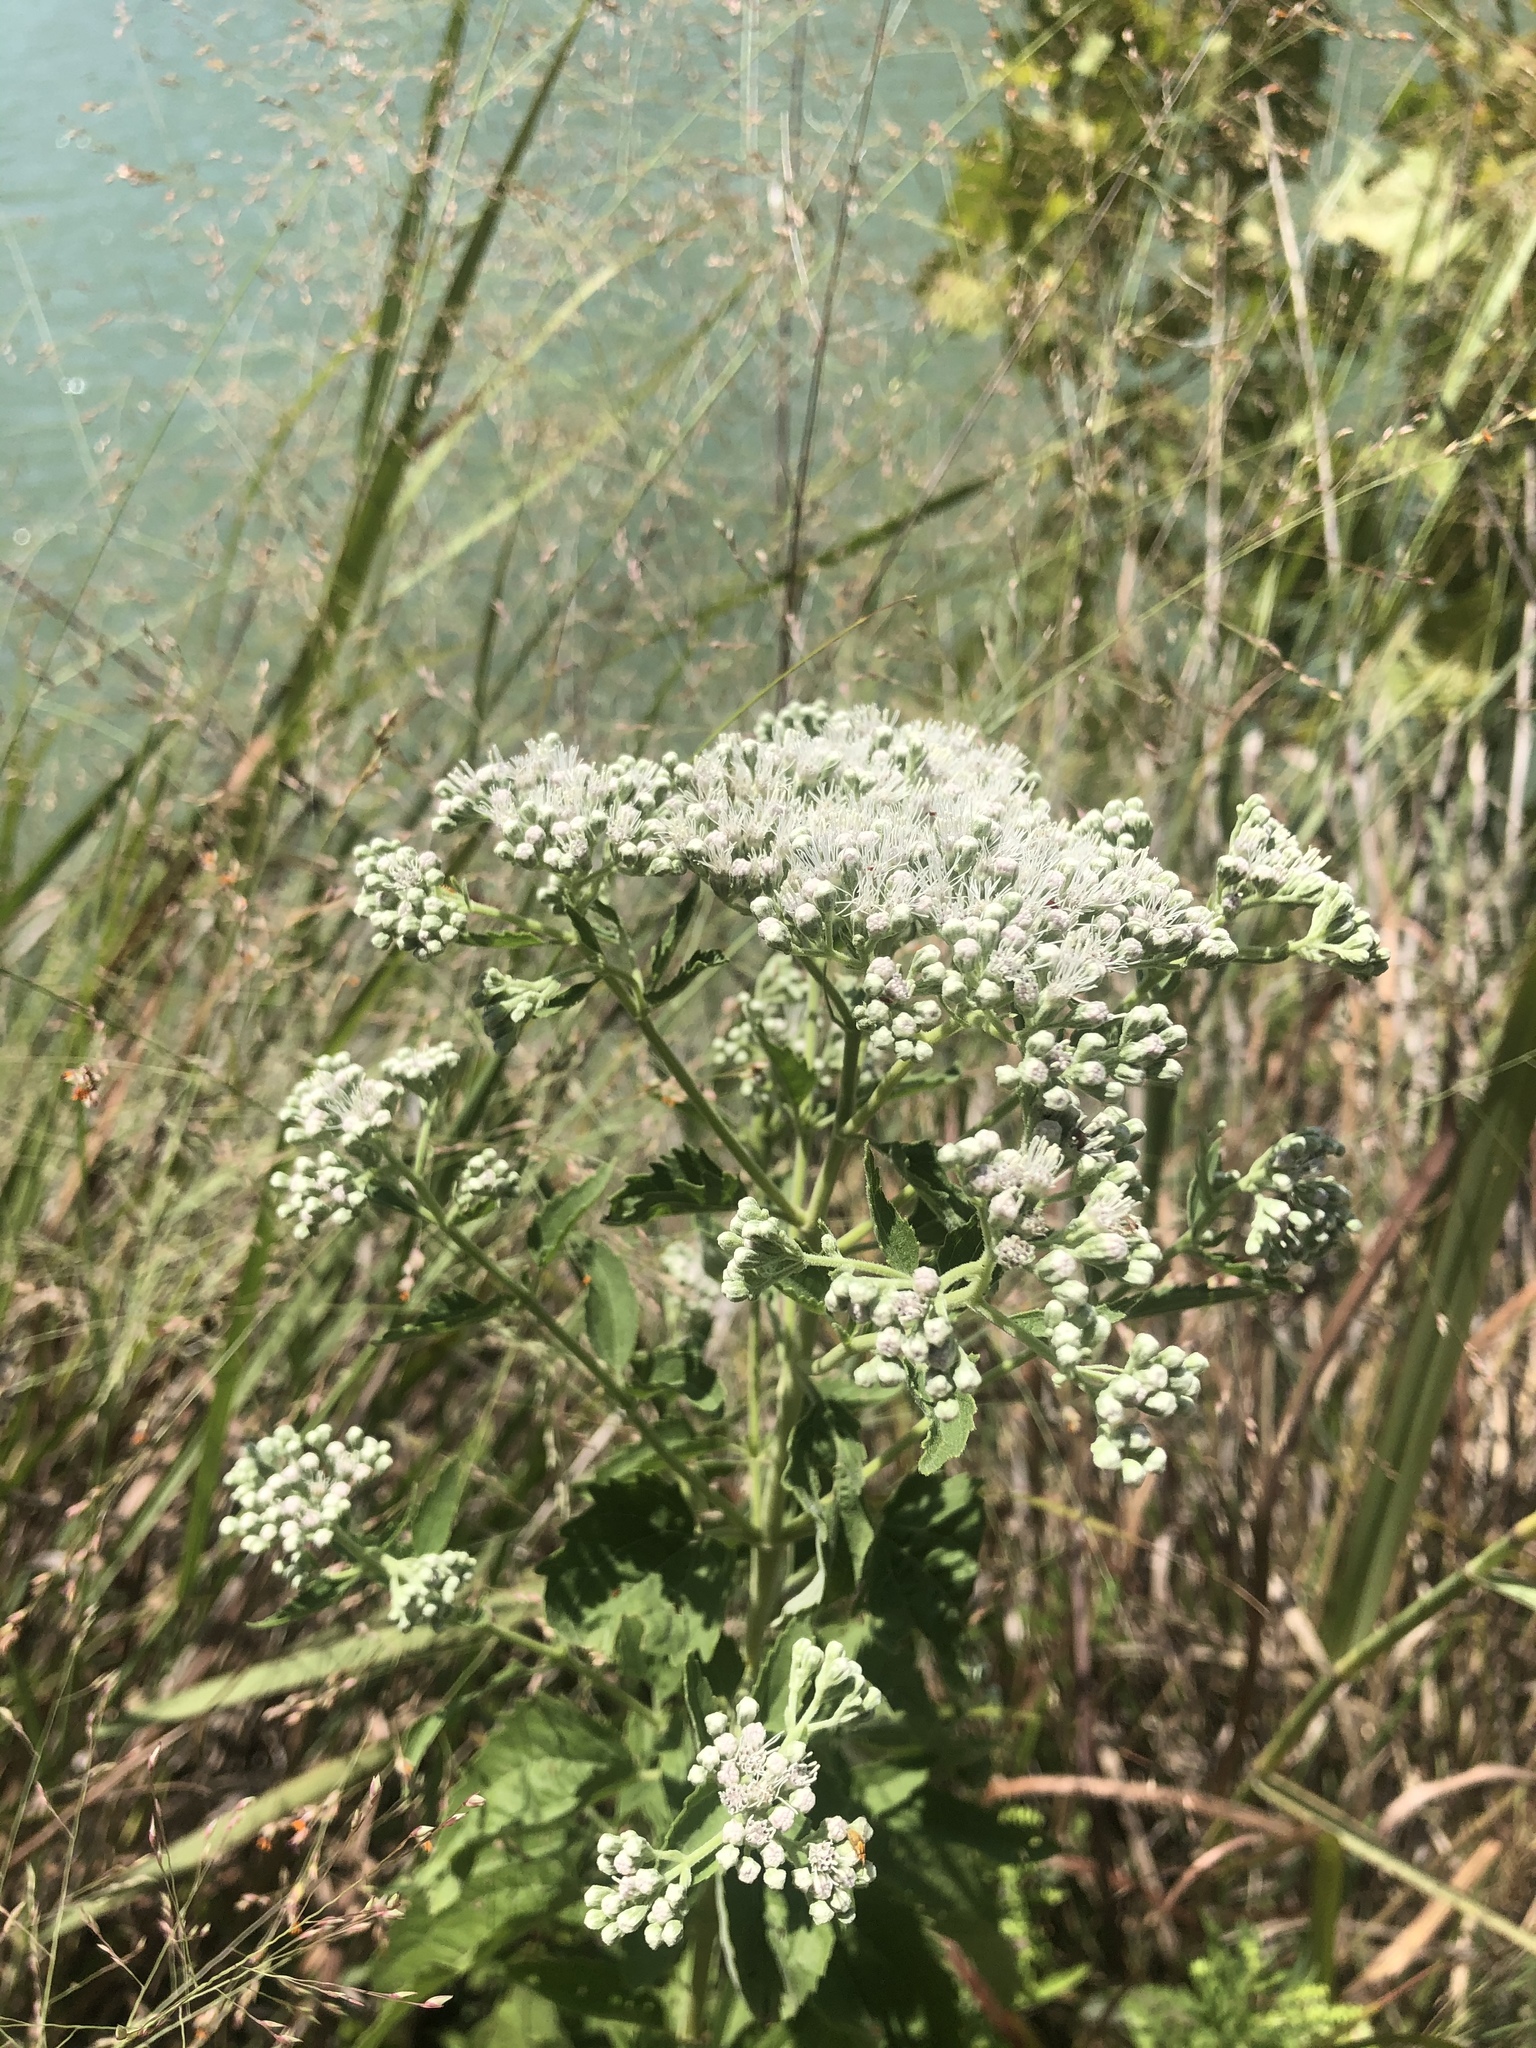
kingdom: Plantae
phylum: Tracheophyta
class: Magnoliopsida
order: Asterales
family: Asteraceae
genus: Eupatorium
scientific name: Eupatorium serotinum
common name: Late boneset
